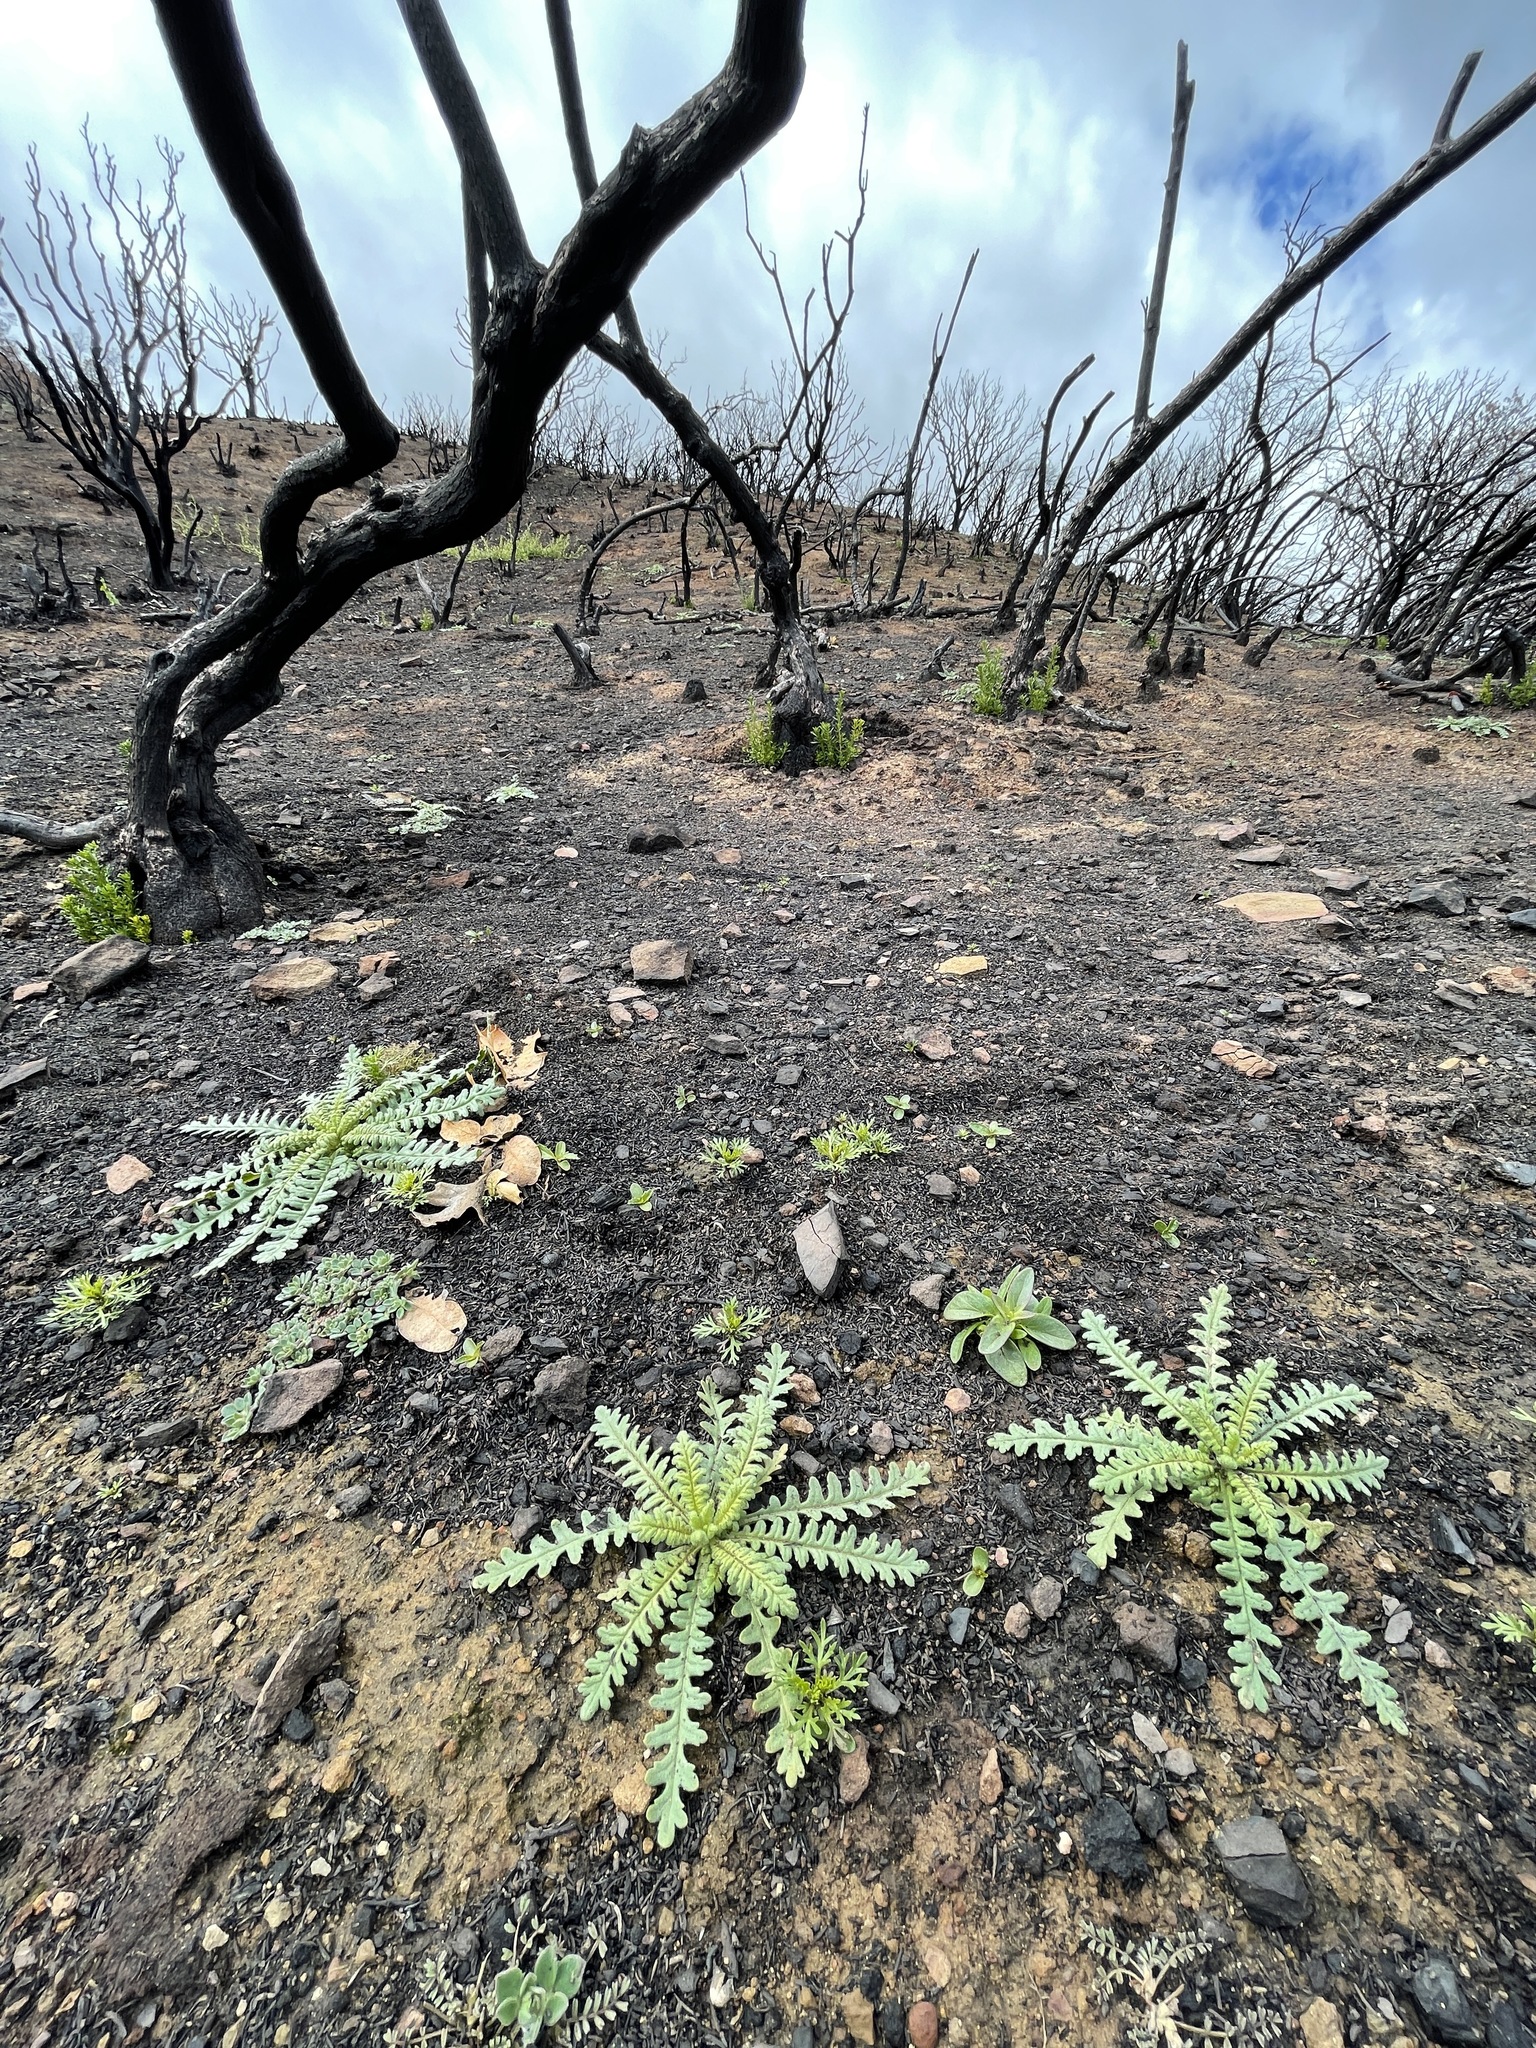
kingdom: Plantae
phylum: Tracheophyta
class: Magnoliopsida
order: Boraginales
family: Hydrophyllaceae
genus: Emmenanthe
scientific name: Emmenanthe penduliflora
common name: Whispering-bells
